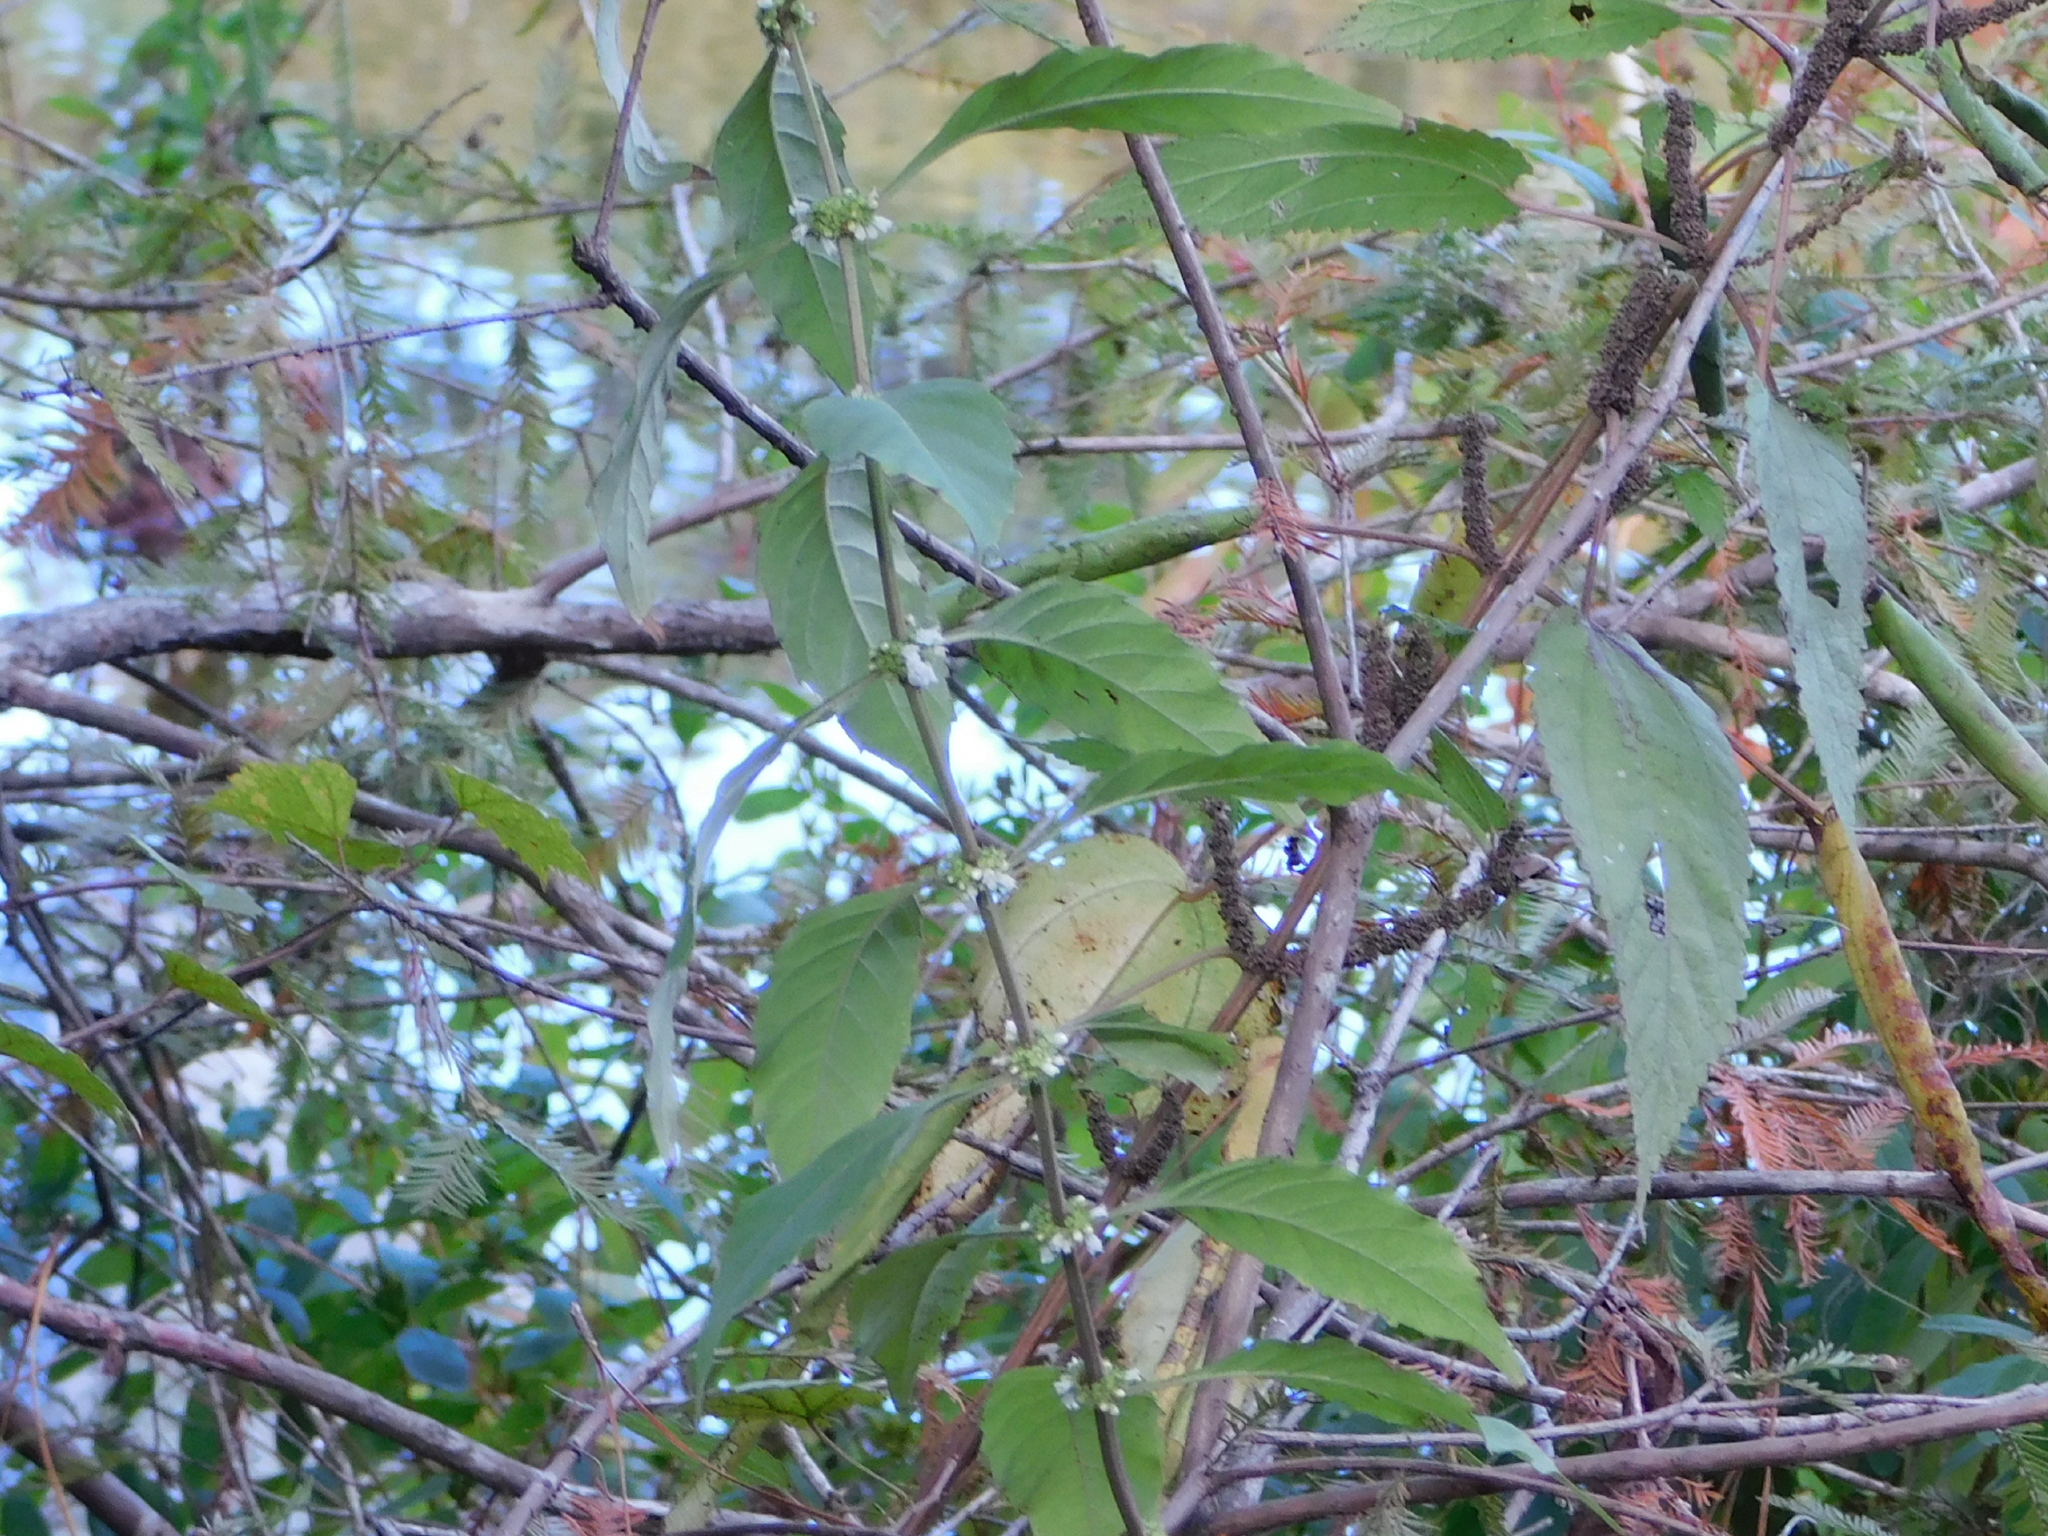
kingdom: Plantae
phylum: Tracheophyta
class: Magnoliopsida
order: Lamiales
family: Lamiaceae
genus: Lycopus
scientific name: Lycopus americanus
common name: American bugleweed
